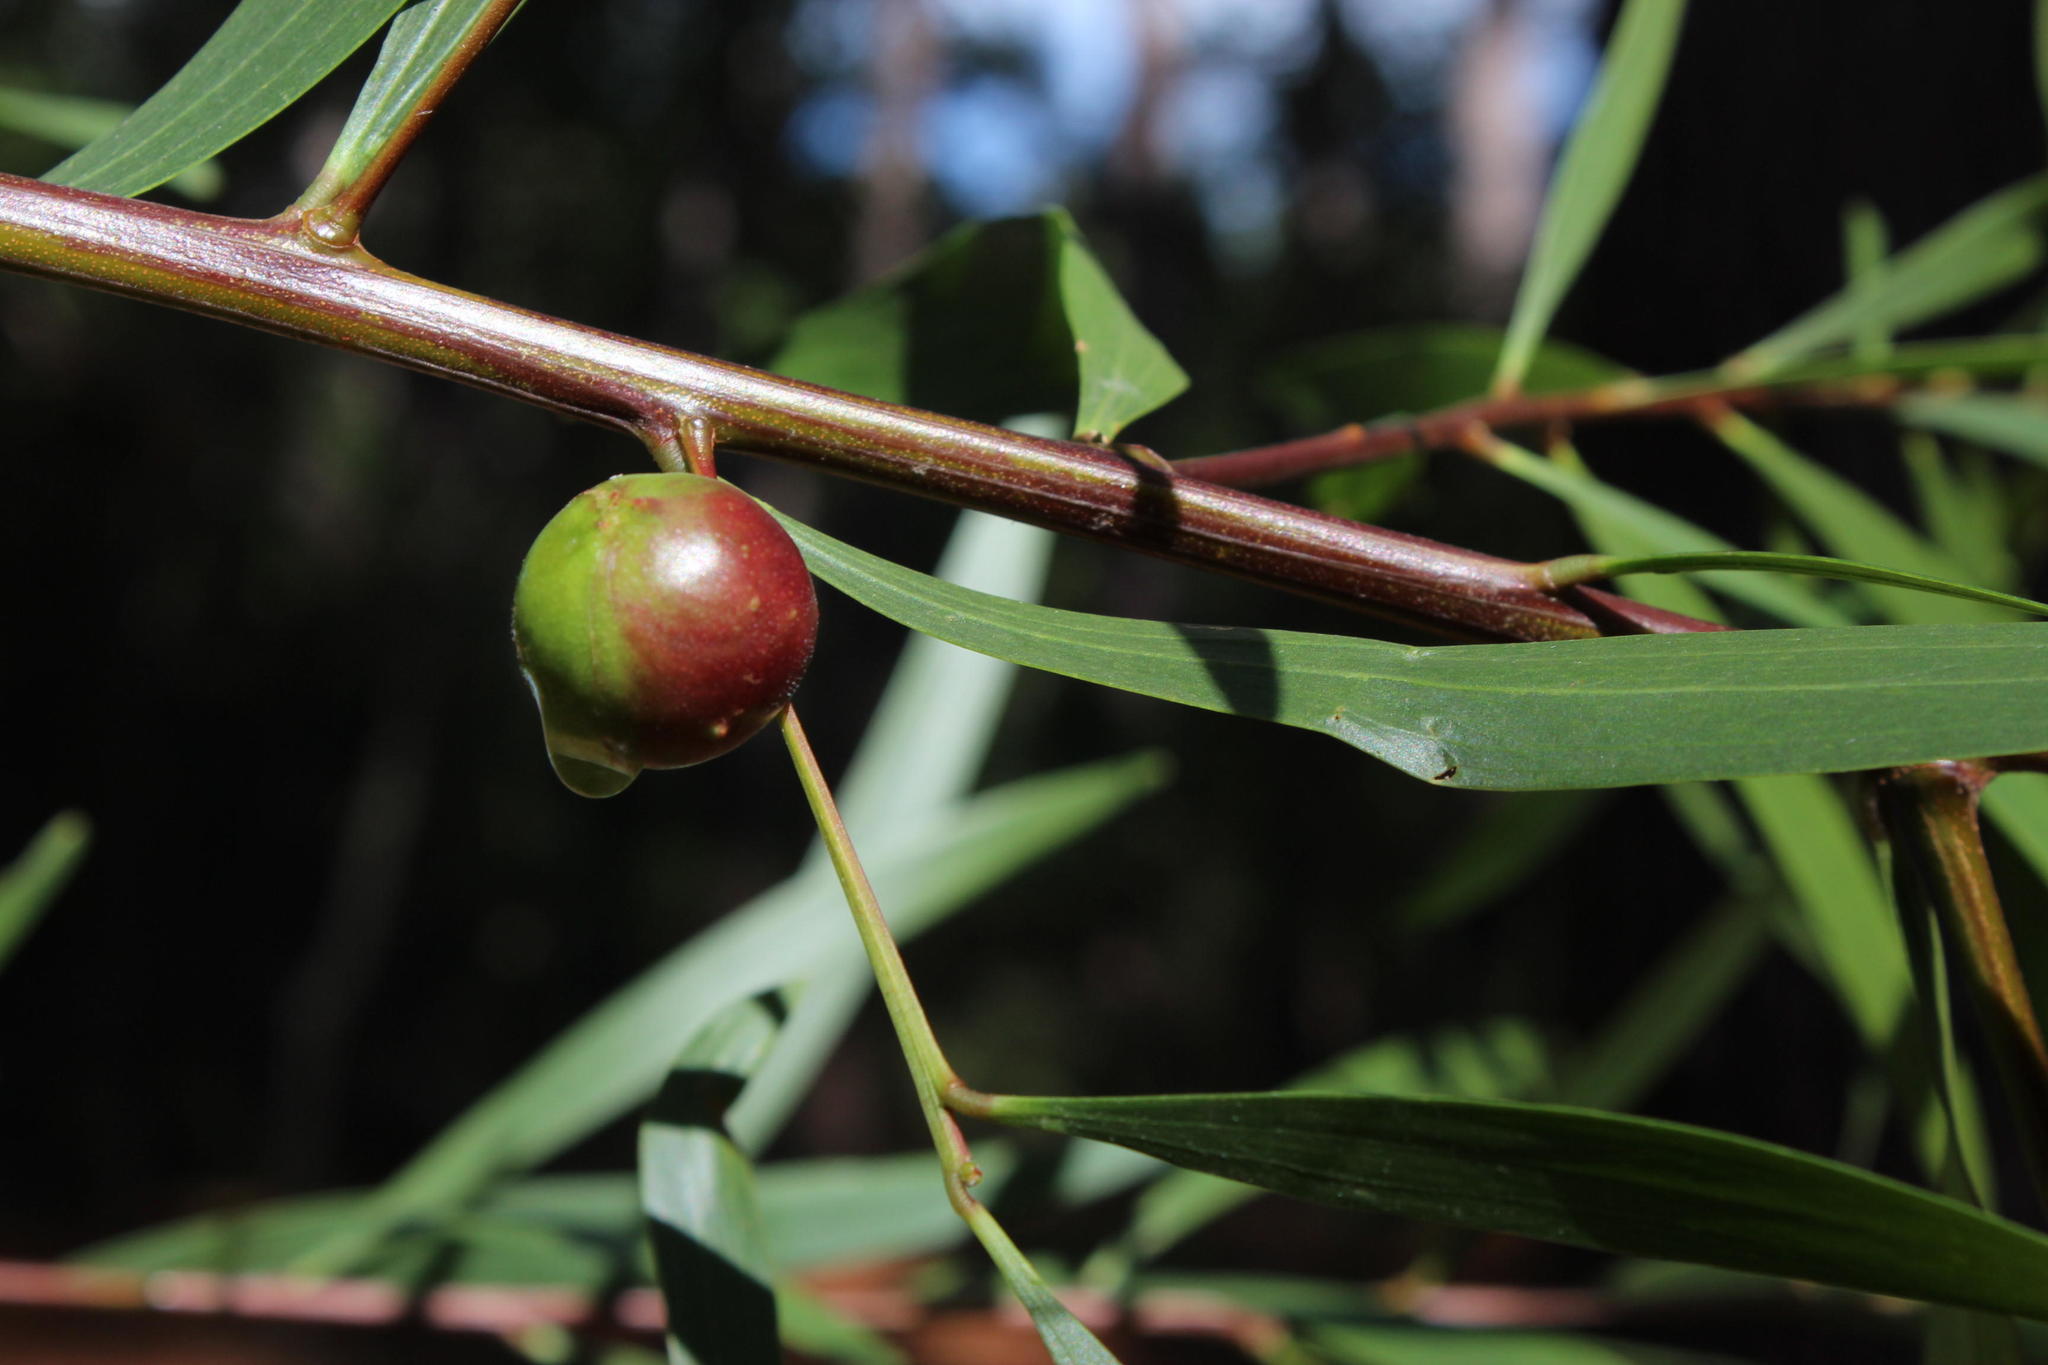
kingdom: Plantae
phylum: Tracheophyta
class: Magnoliopsida
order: Fabales
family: Fabaceae
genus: Acacia
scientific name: Acacia longifolia
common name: Sydney golden wattle
